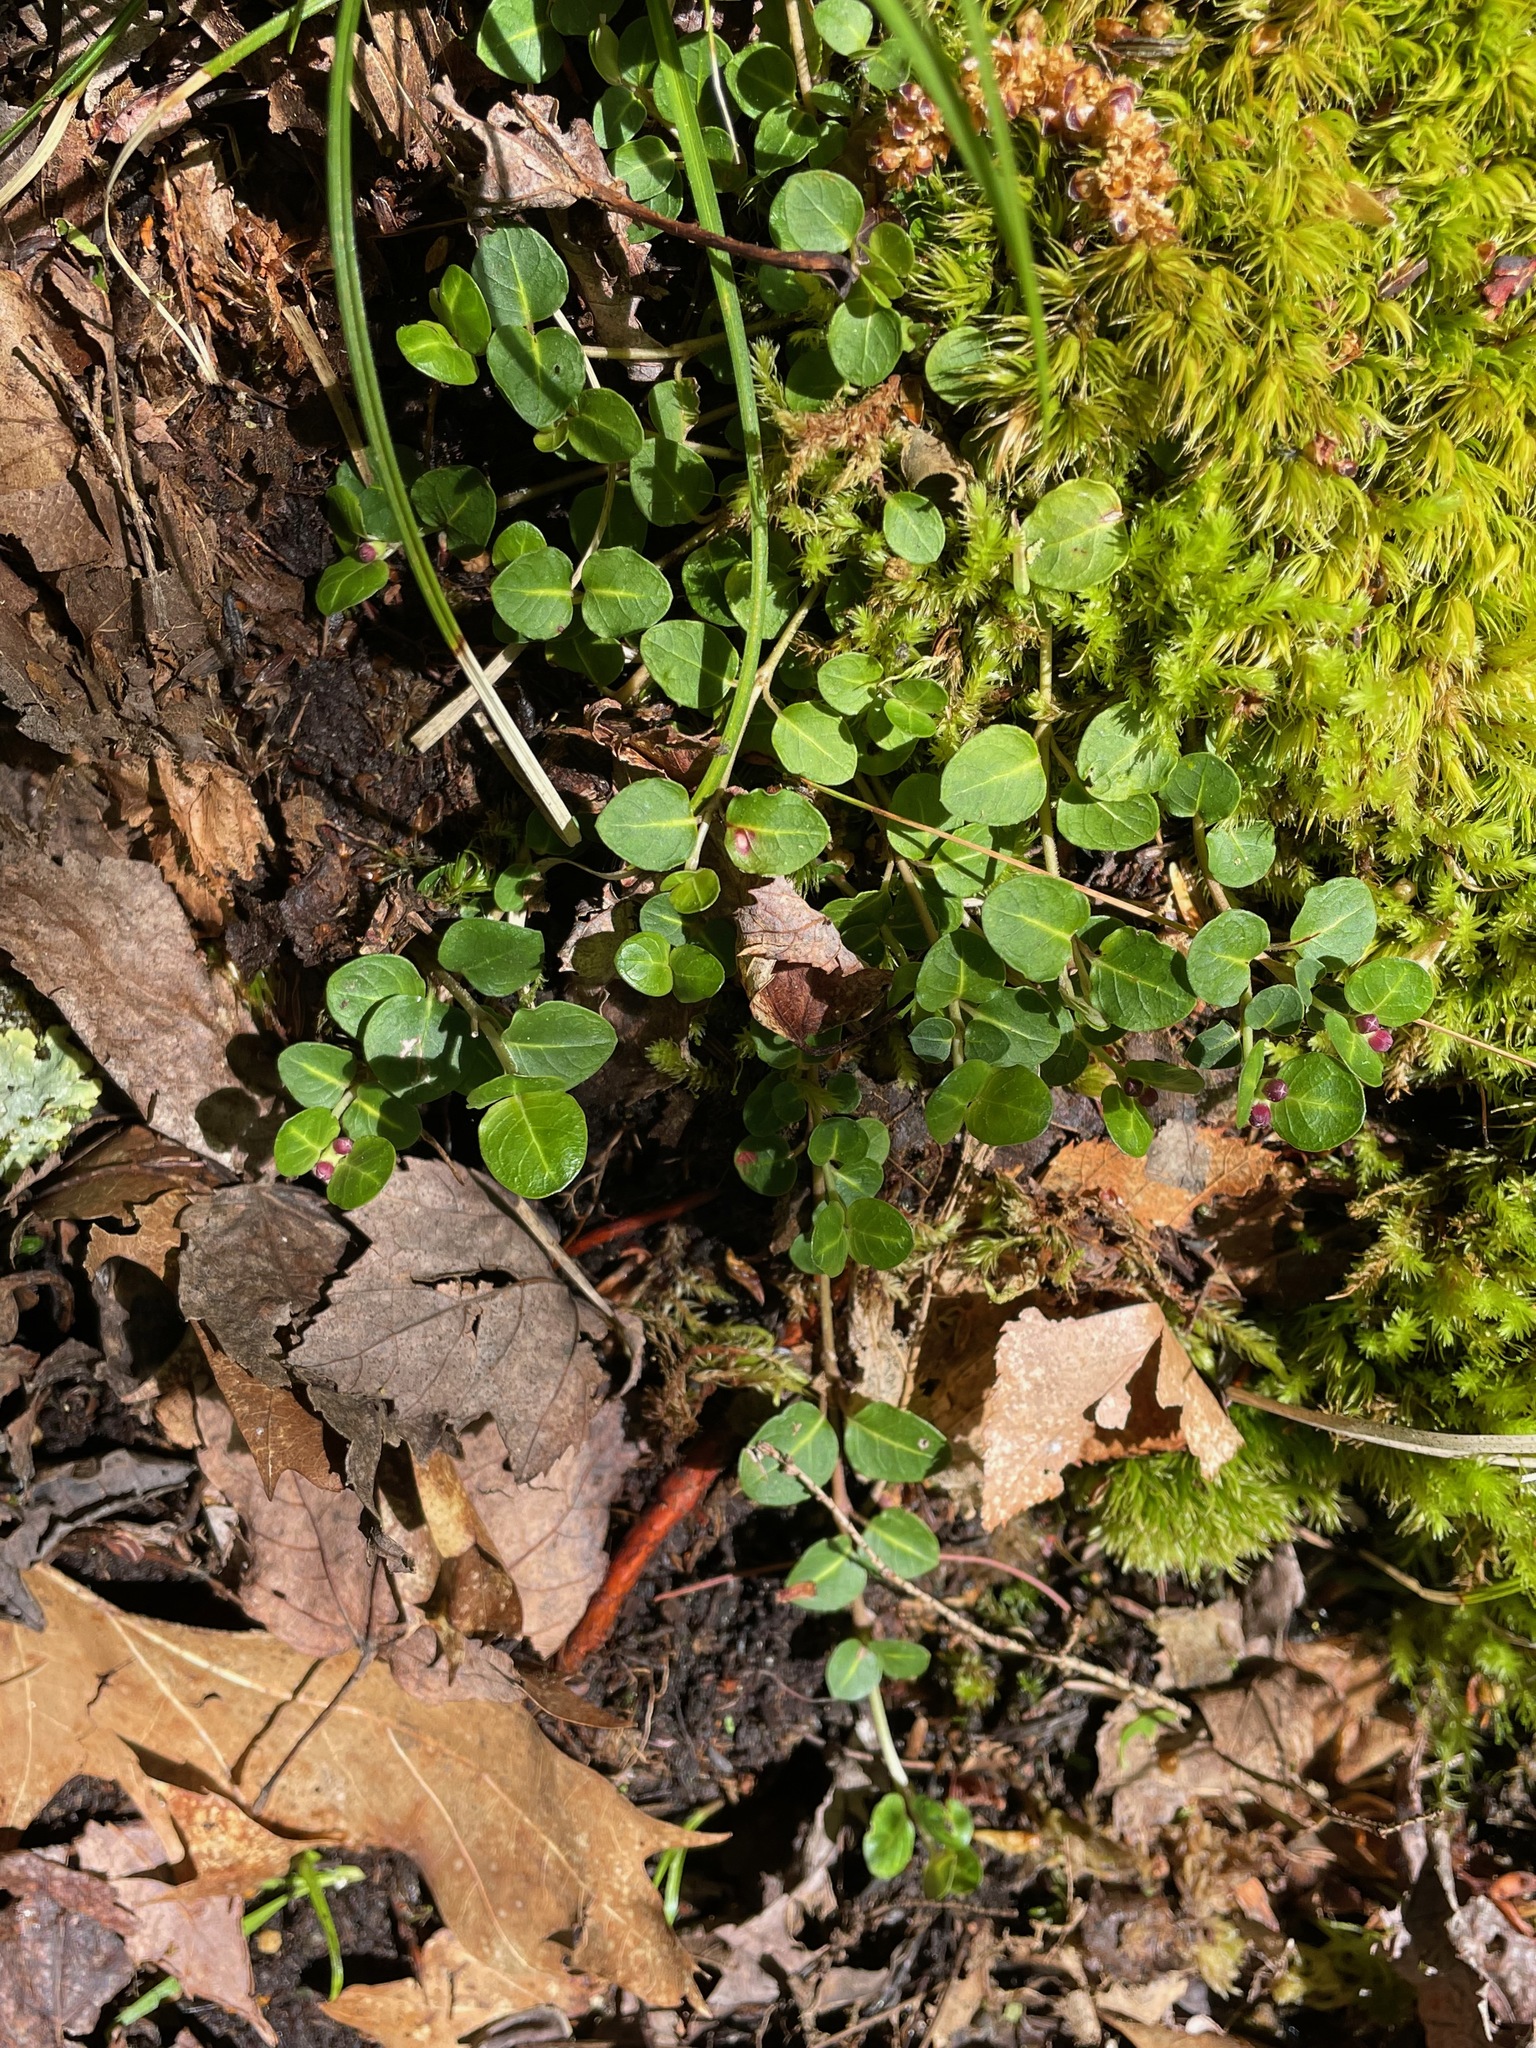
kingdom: Plantae
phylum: Tracheophyta
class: Magnoliopsida
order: Gentianales
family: Rubiaceae
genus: Mitchella
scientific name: Mitchella repens
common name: Partridge-berry
